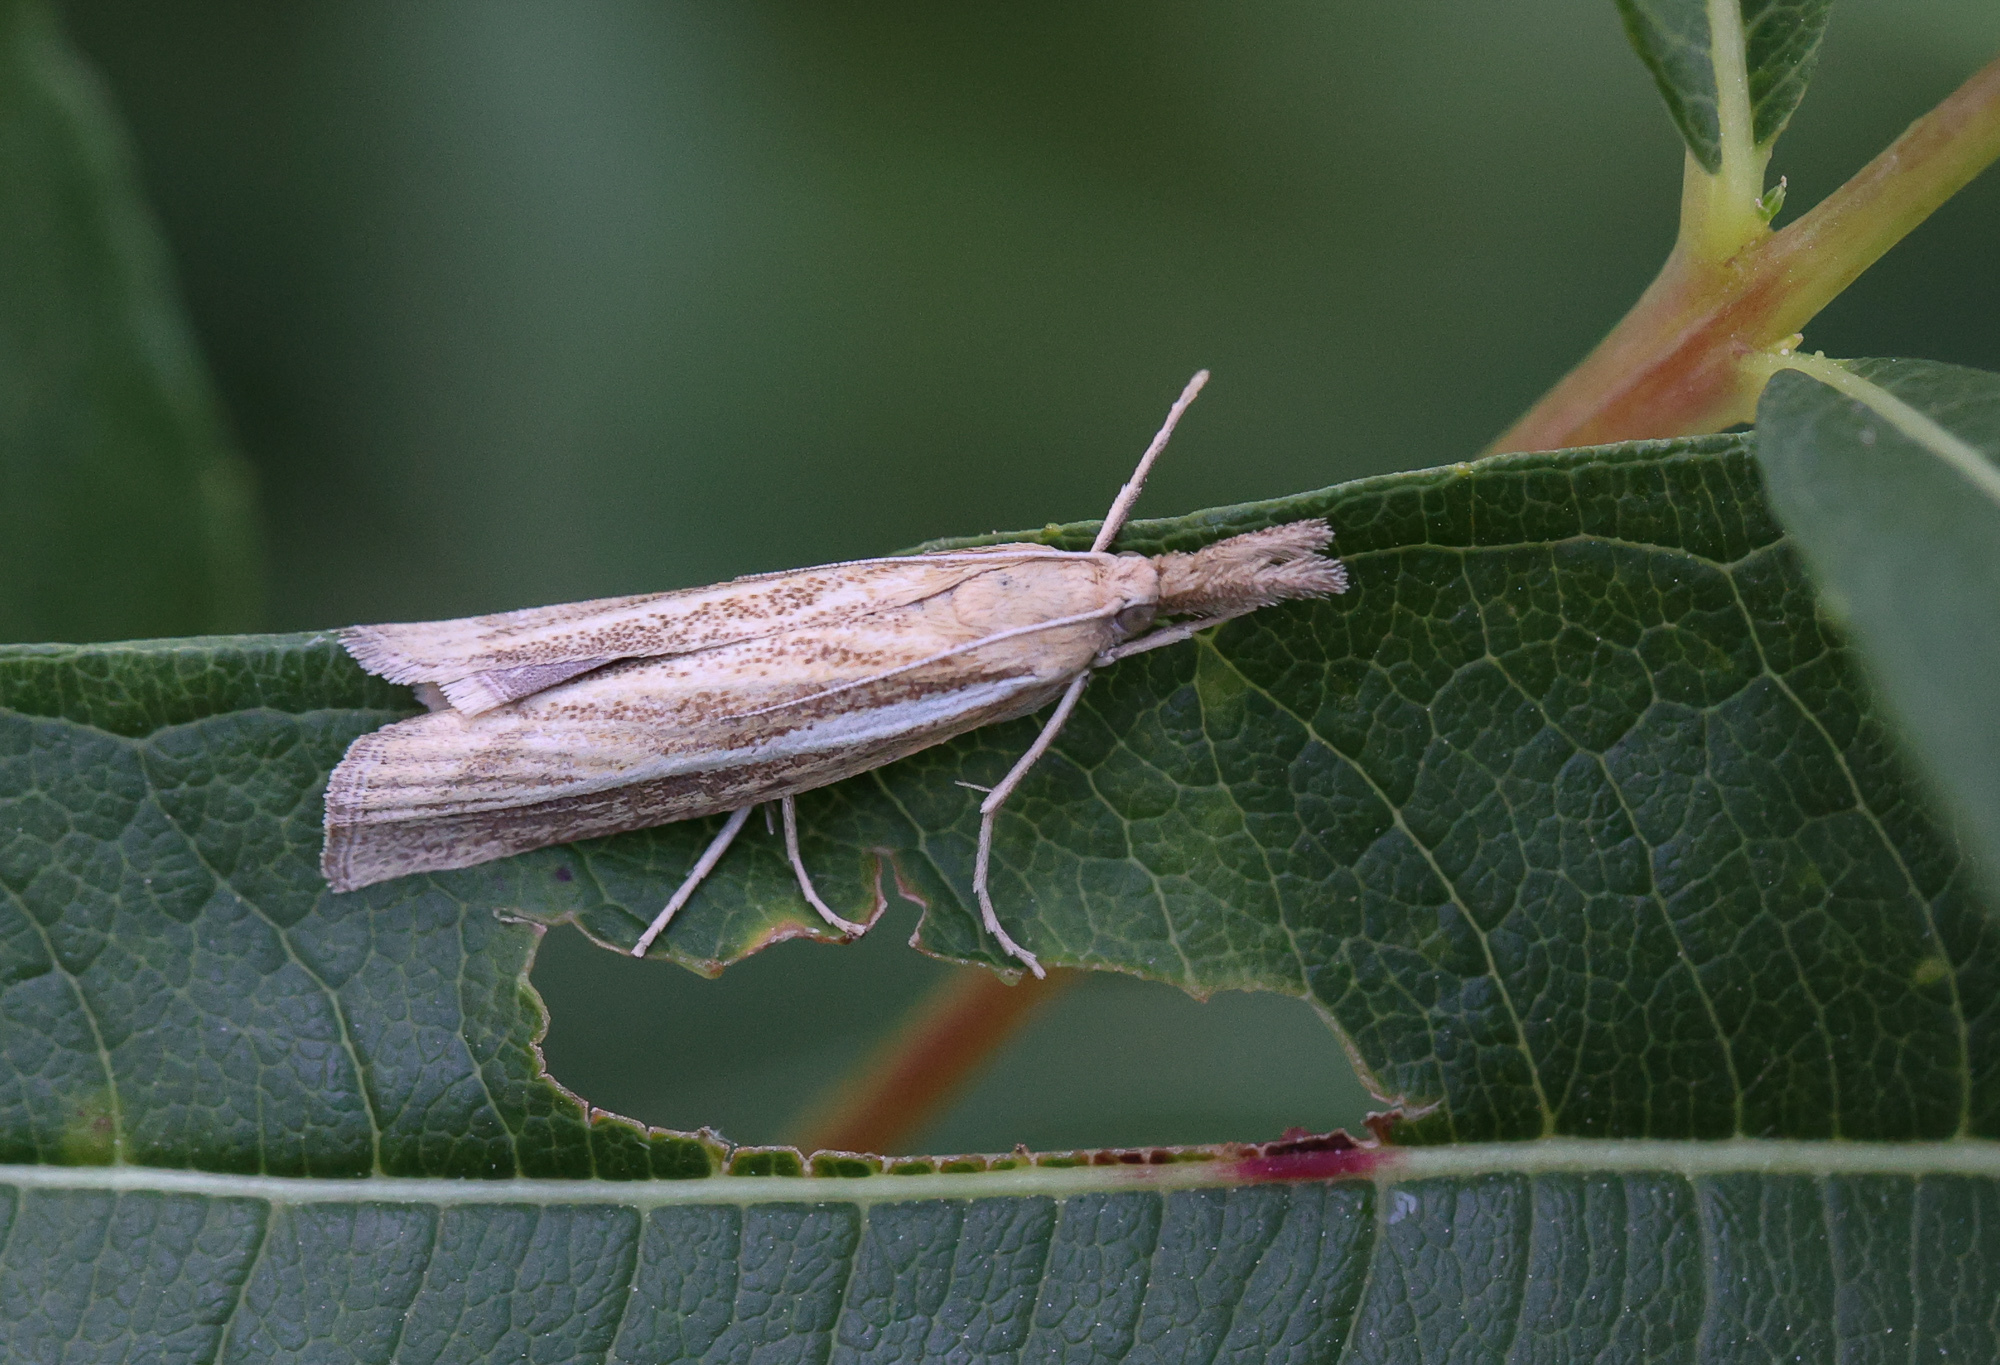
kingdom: Animalia
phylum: Arthropoda
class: Insecta
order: Lepidoptera
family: Crambidae
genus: Agriphila
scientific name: Agriphila tristellus
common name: Common grass-veneer
